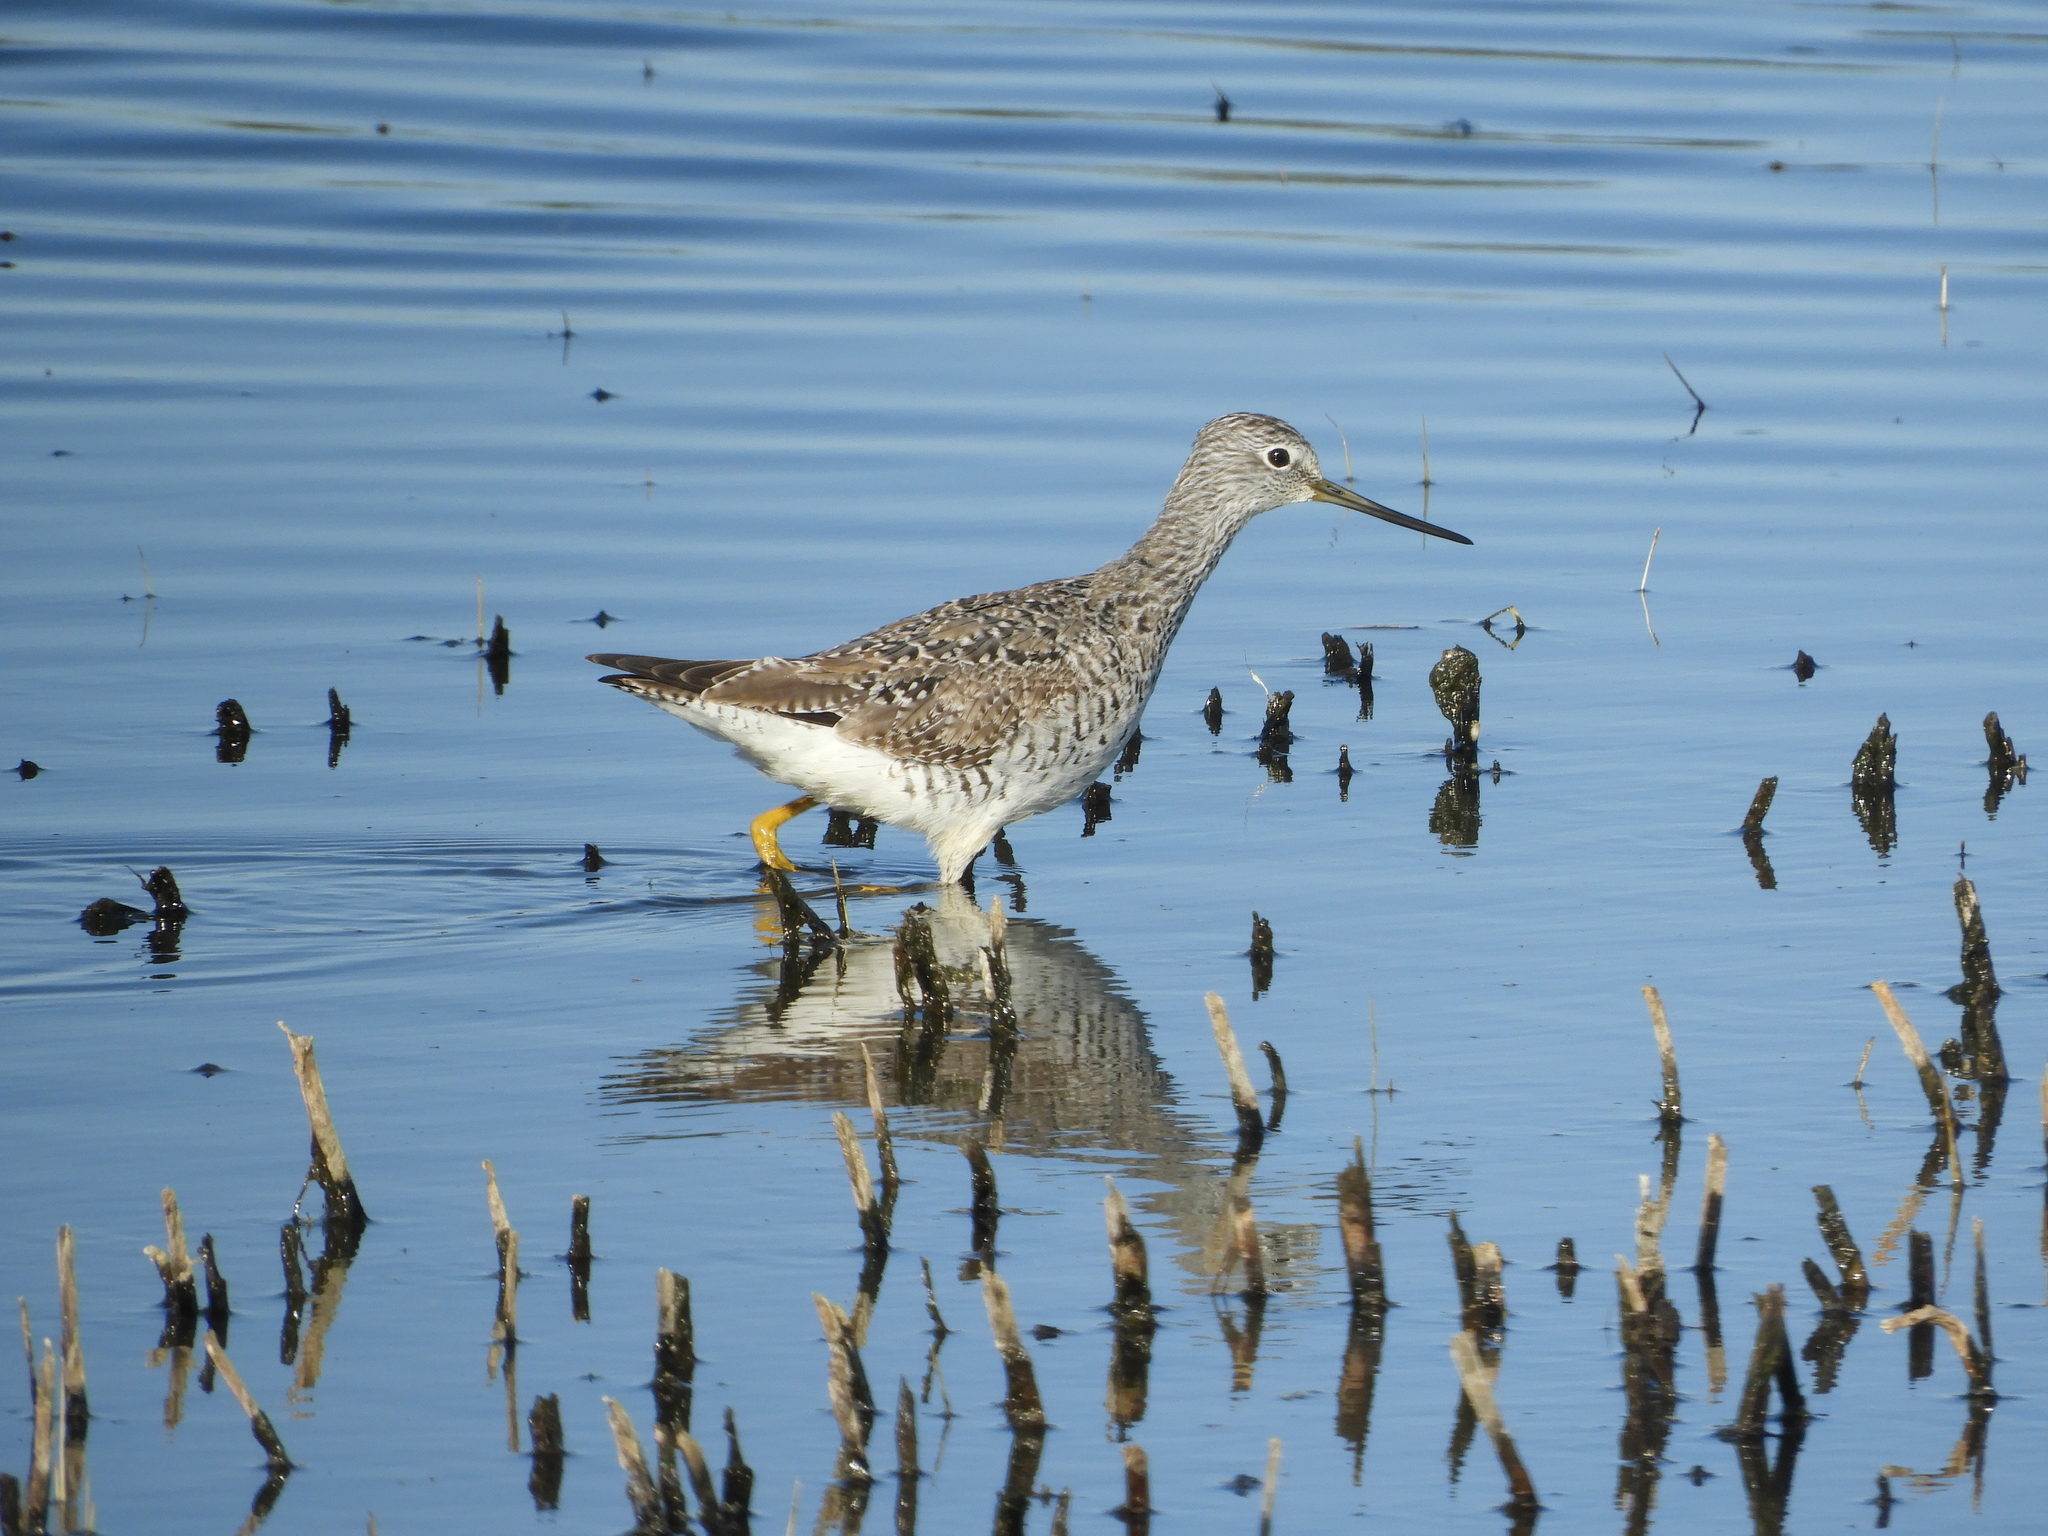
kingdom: Animalia
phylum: Chordata
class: Aves
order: Charadriiformes
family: Scolopacidae
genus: Tringa
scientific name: Tringa melanoleuca
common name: Greater yellowlegs
